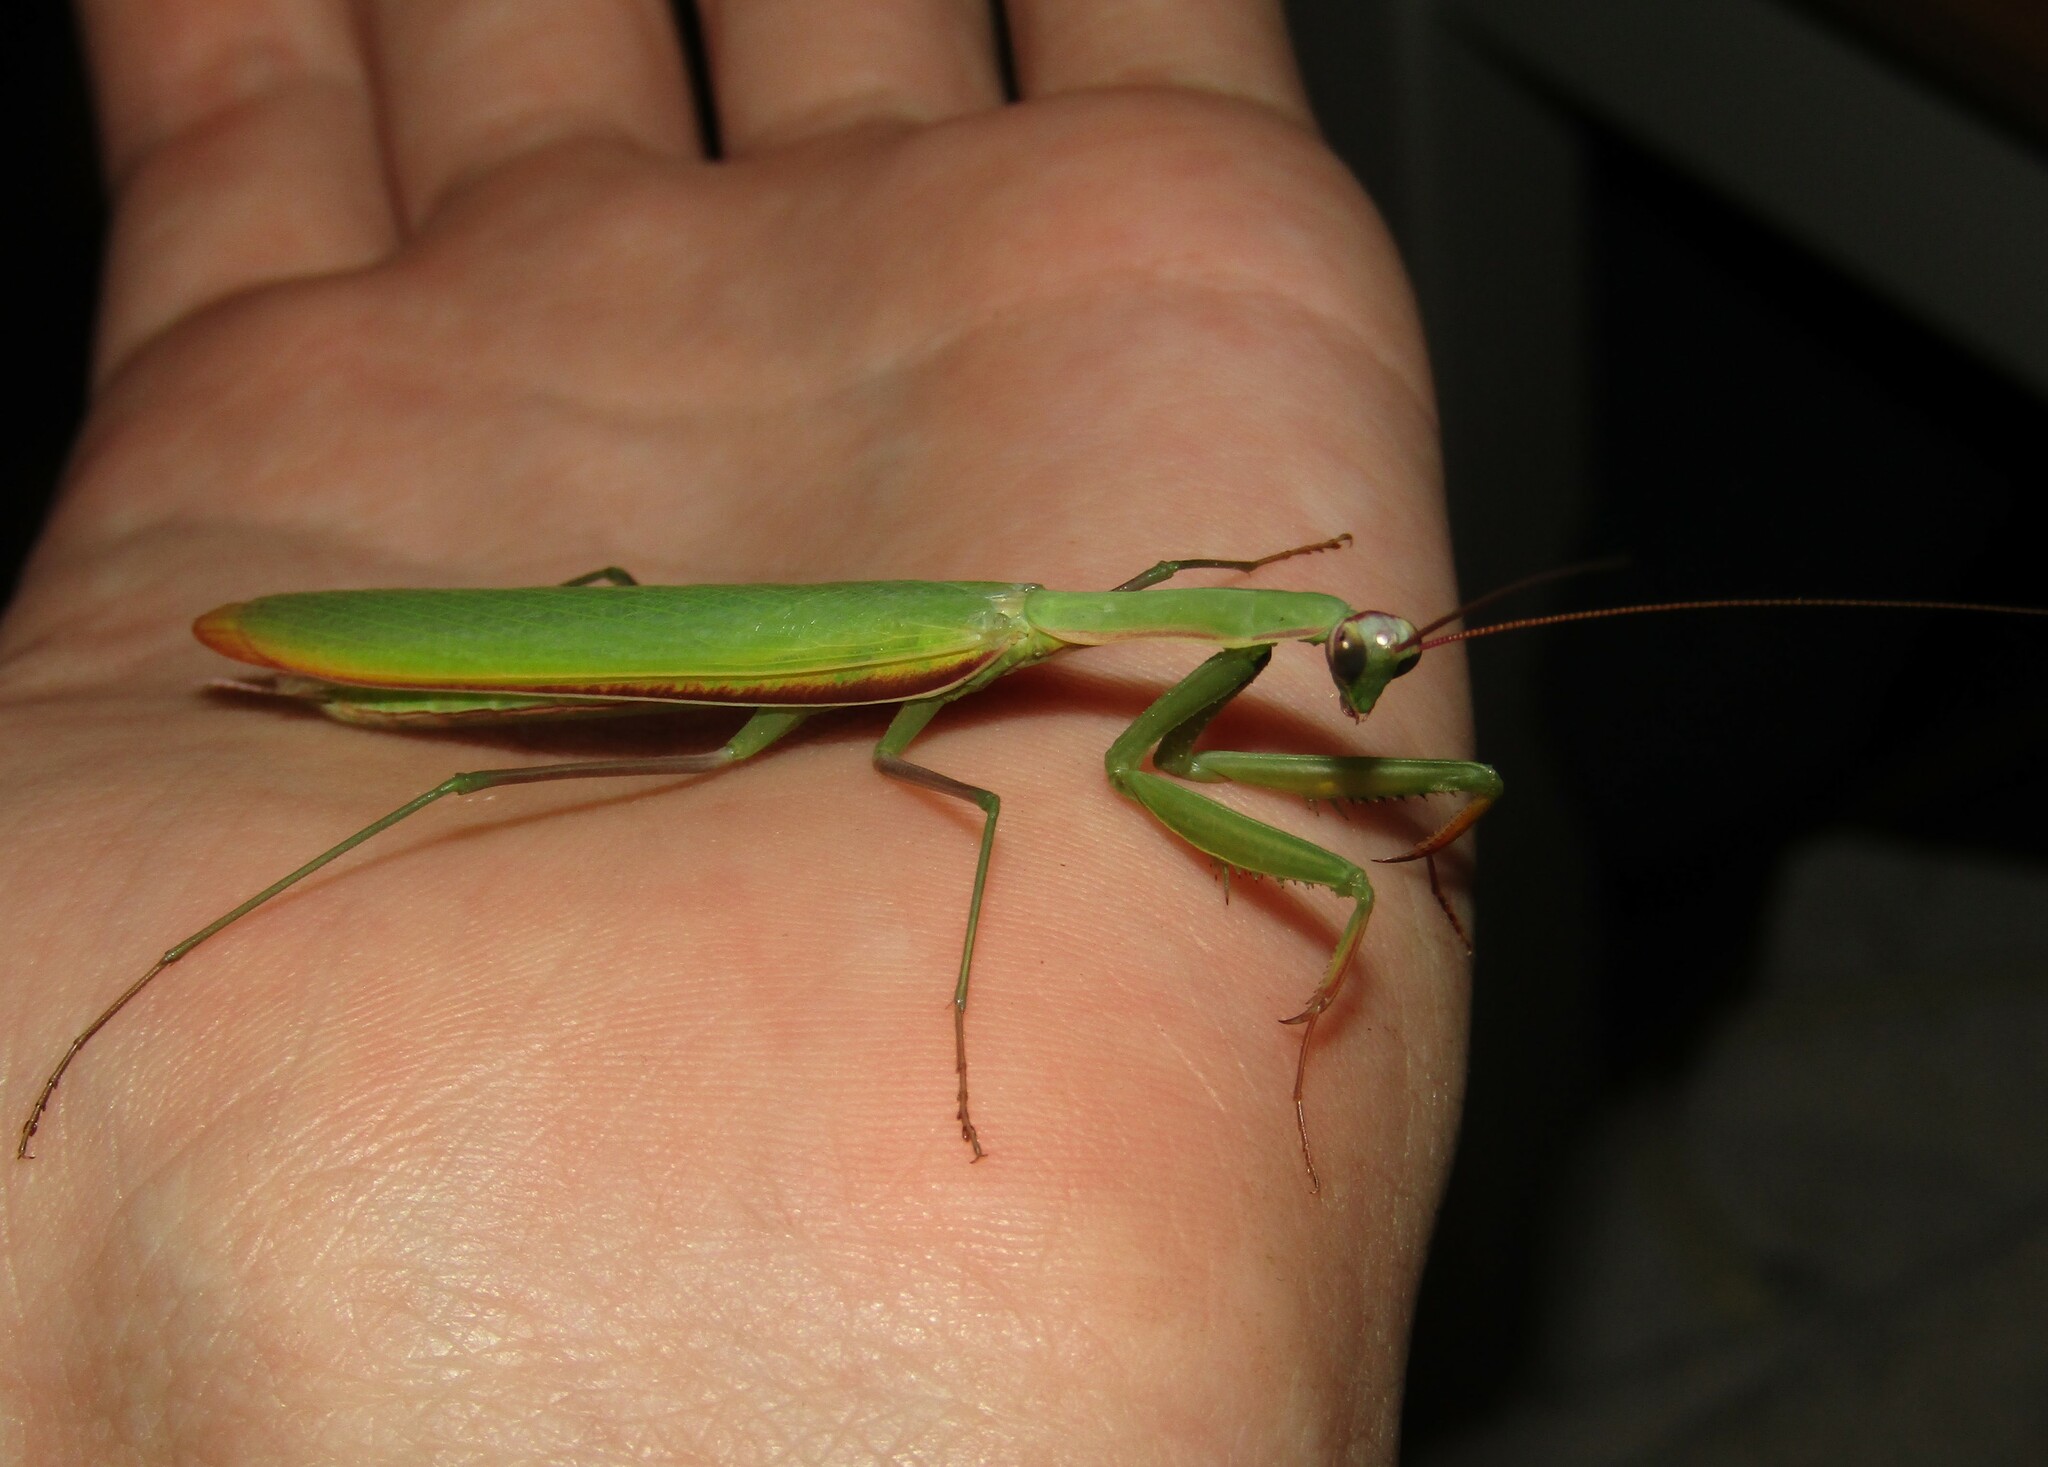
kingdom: Animalia
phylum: Arthropoda
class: Insecta
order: Mantodea
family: Mantidae
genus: Mantis
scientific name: Mantis religiosa
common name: Praying mantis
